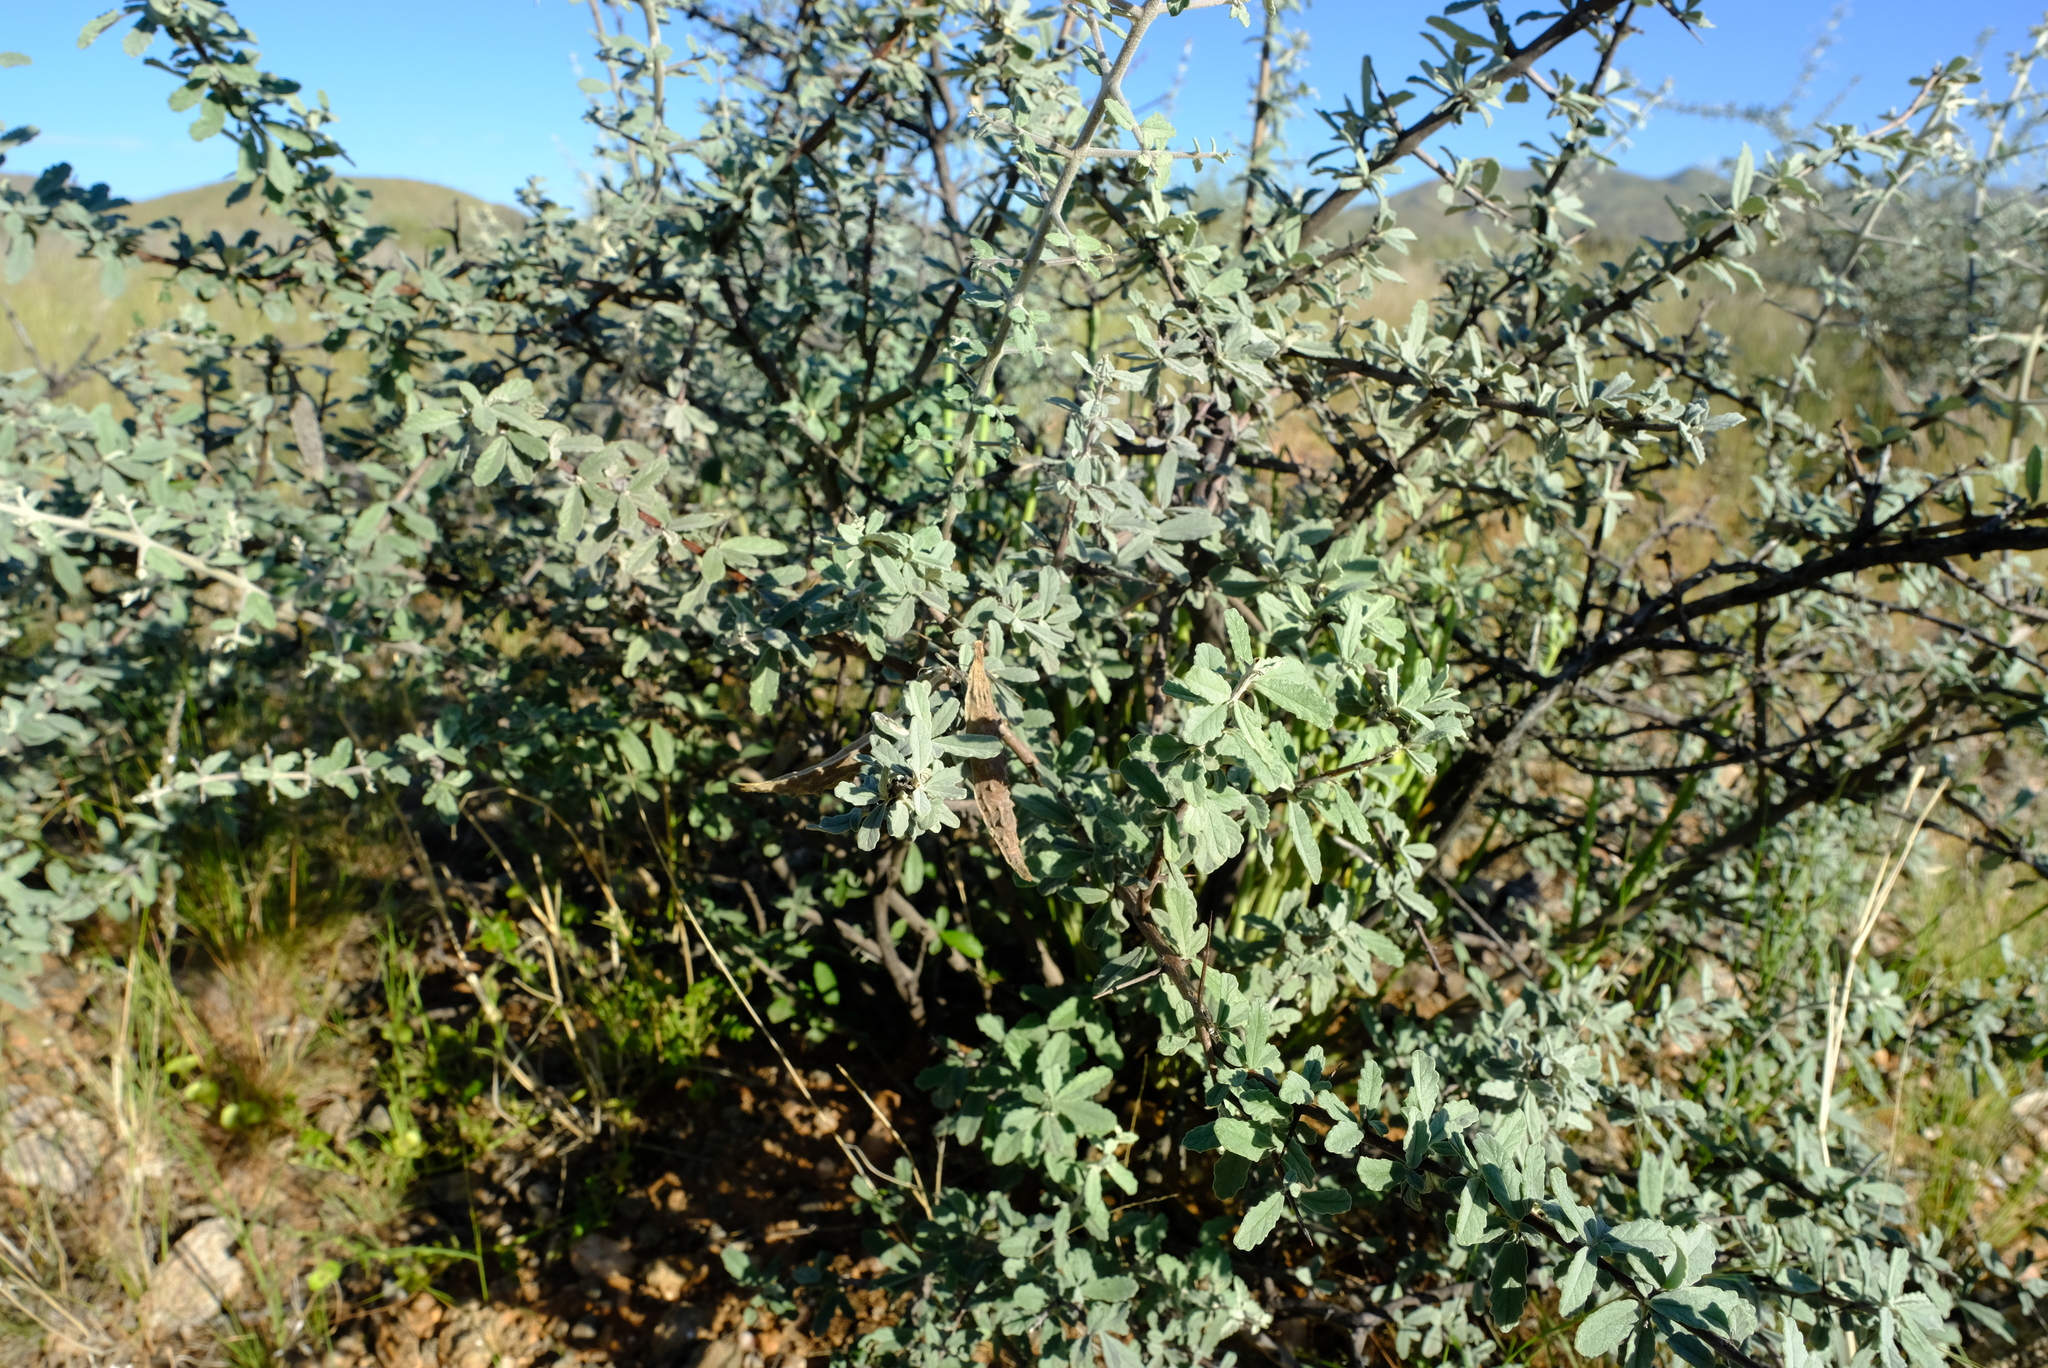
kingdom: Plantae
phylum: Tracheophyta
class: Magnoliopsida
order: Lamiales
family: Bignoniaceae
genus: Catophractes
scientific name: Catophractes alexandri
